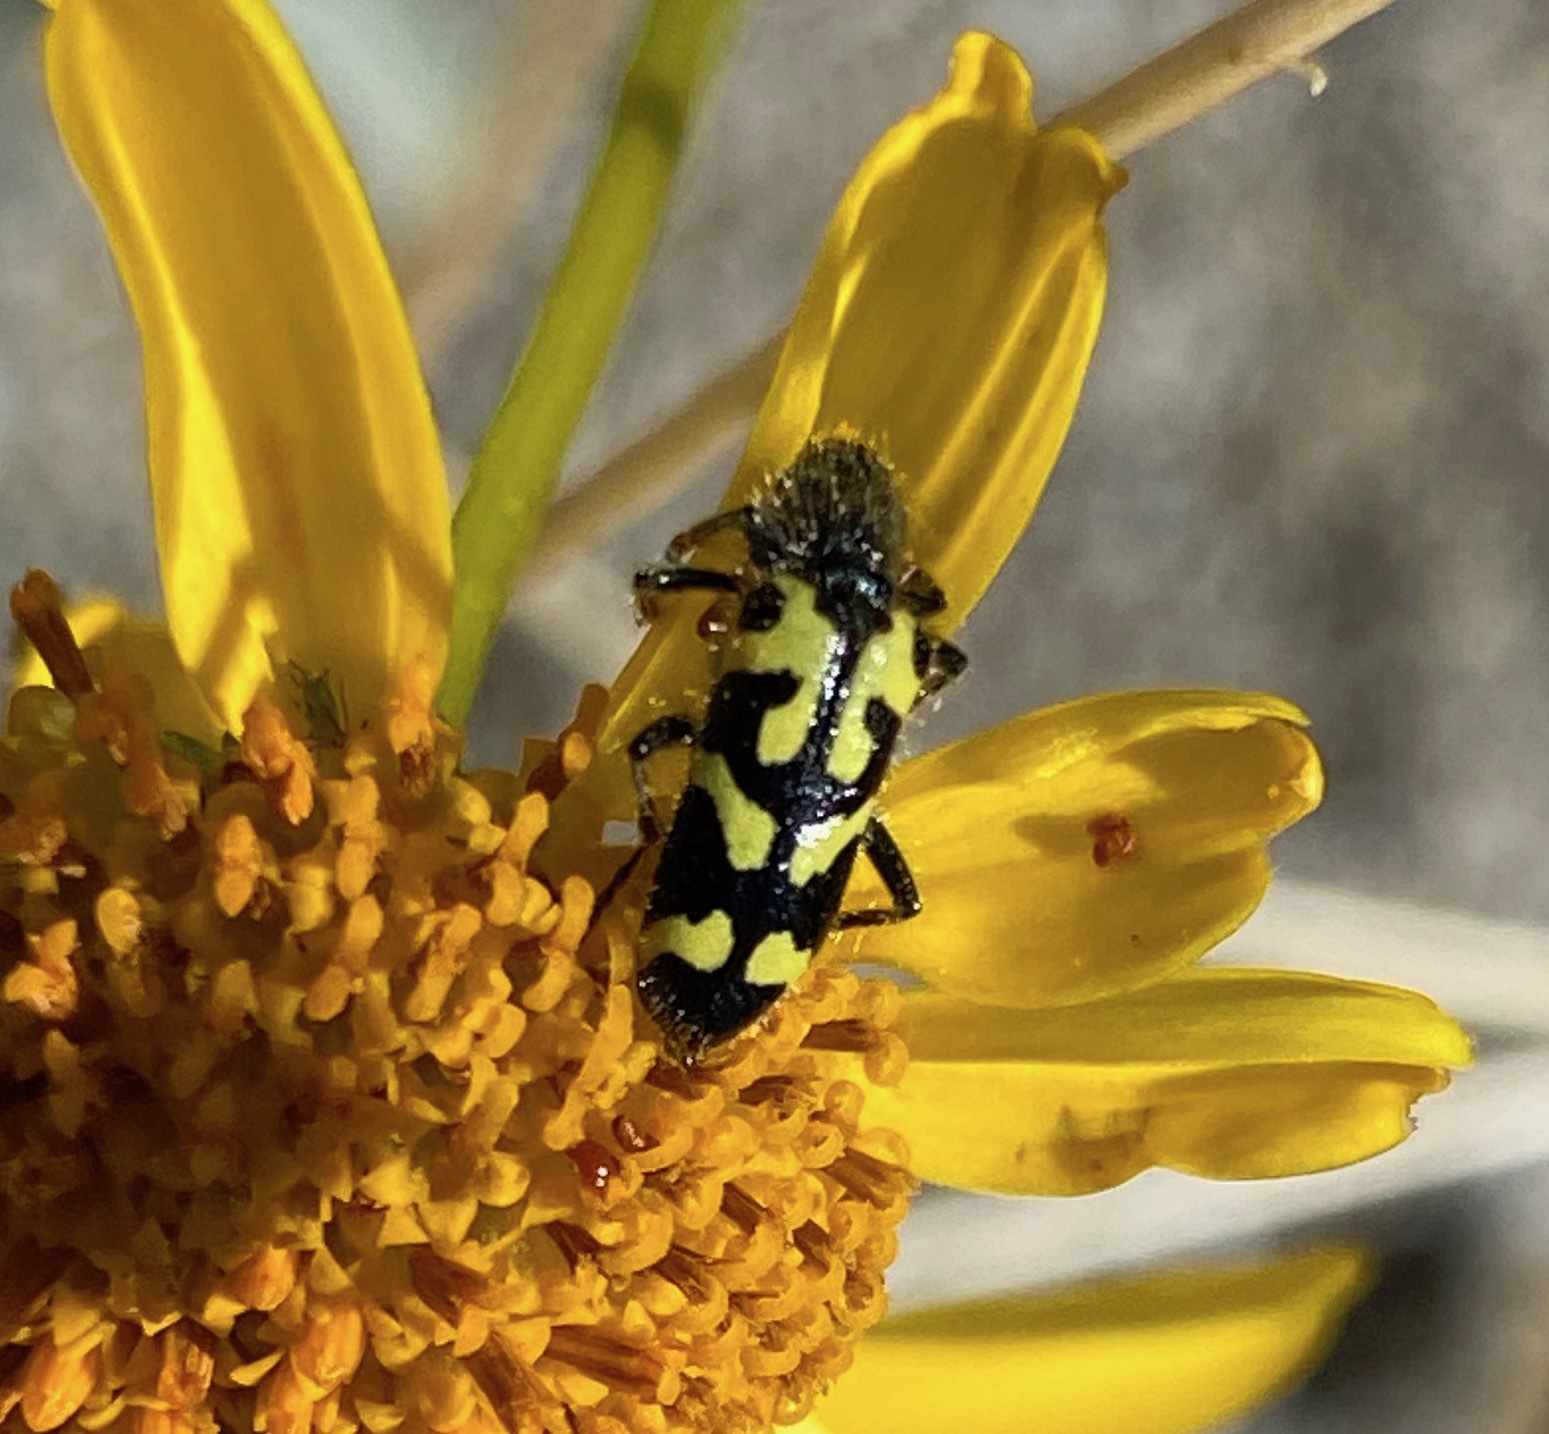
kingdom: Animalia
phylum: Arthropoda
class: Insecta
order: Coleoptera
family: Cleridae
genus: Trichodes
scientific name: Trichodes ornatus
